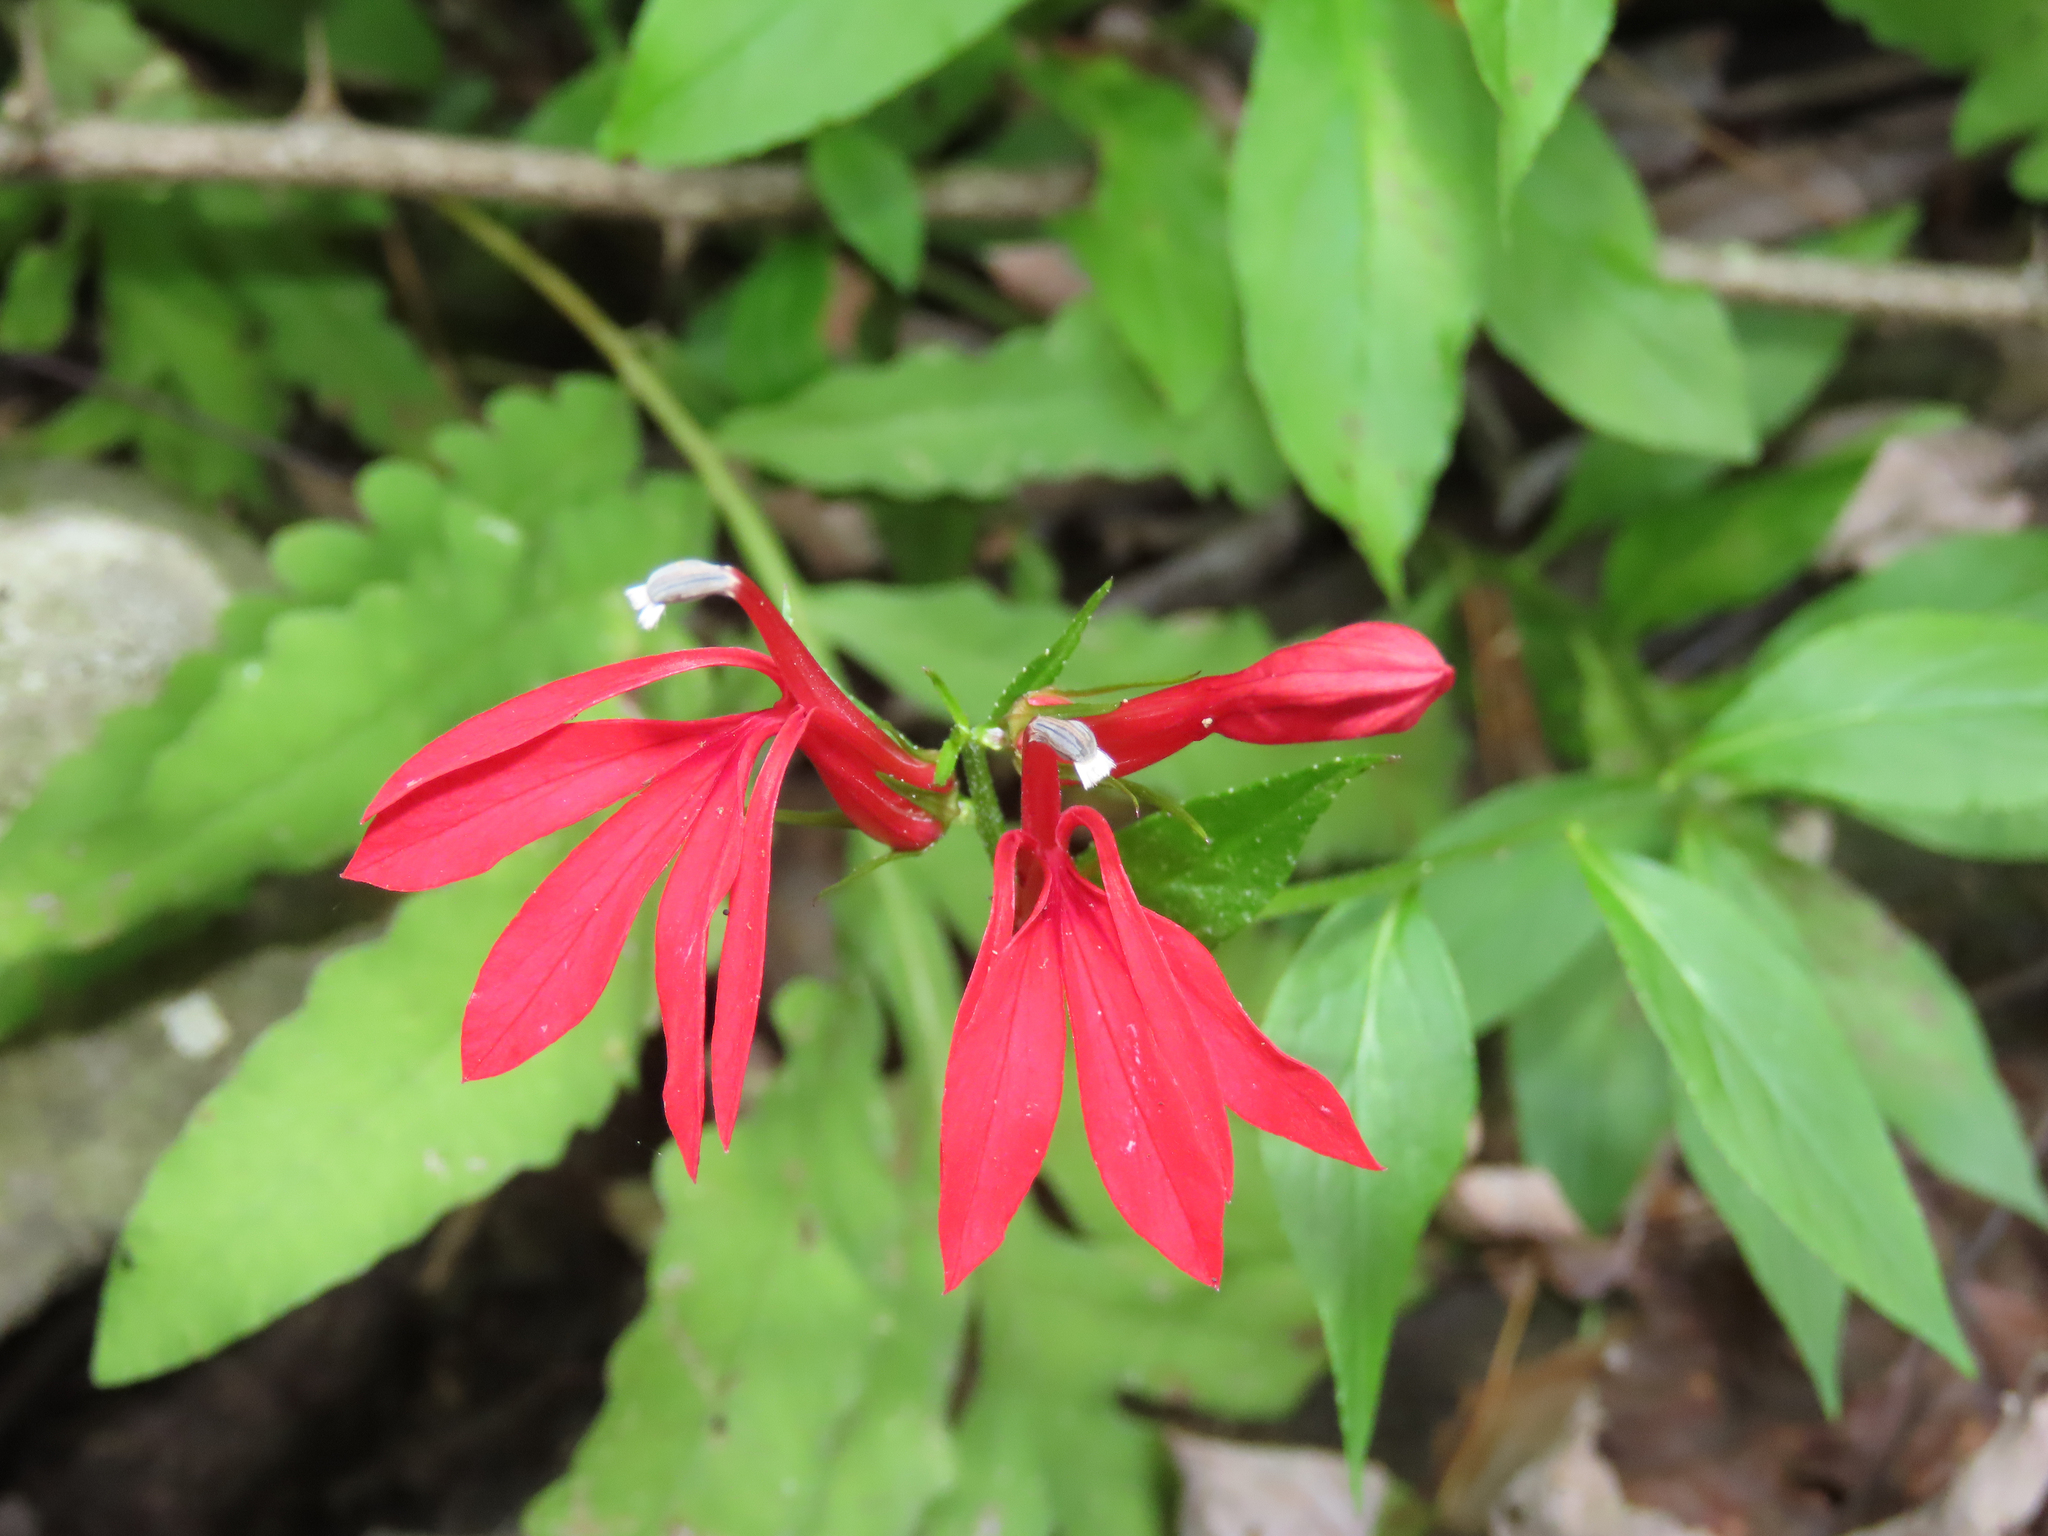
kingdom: Plantae
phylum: Tracheophyta
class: Magnoliopsida
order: Asterales
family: Campanulaceae
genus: Lobelia
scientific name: Lobelia cardinalis
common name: Cardinal flower
